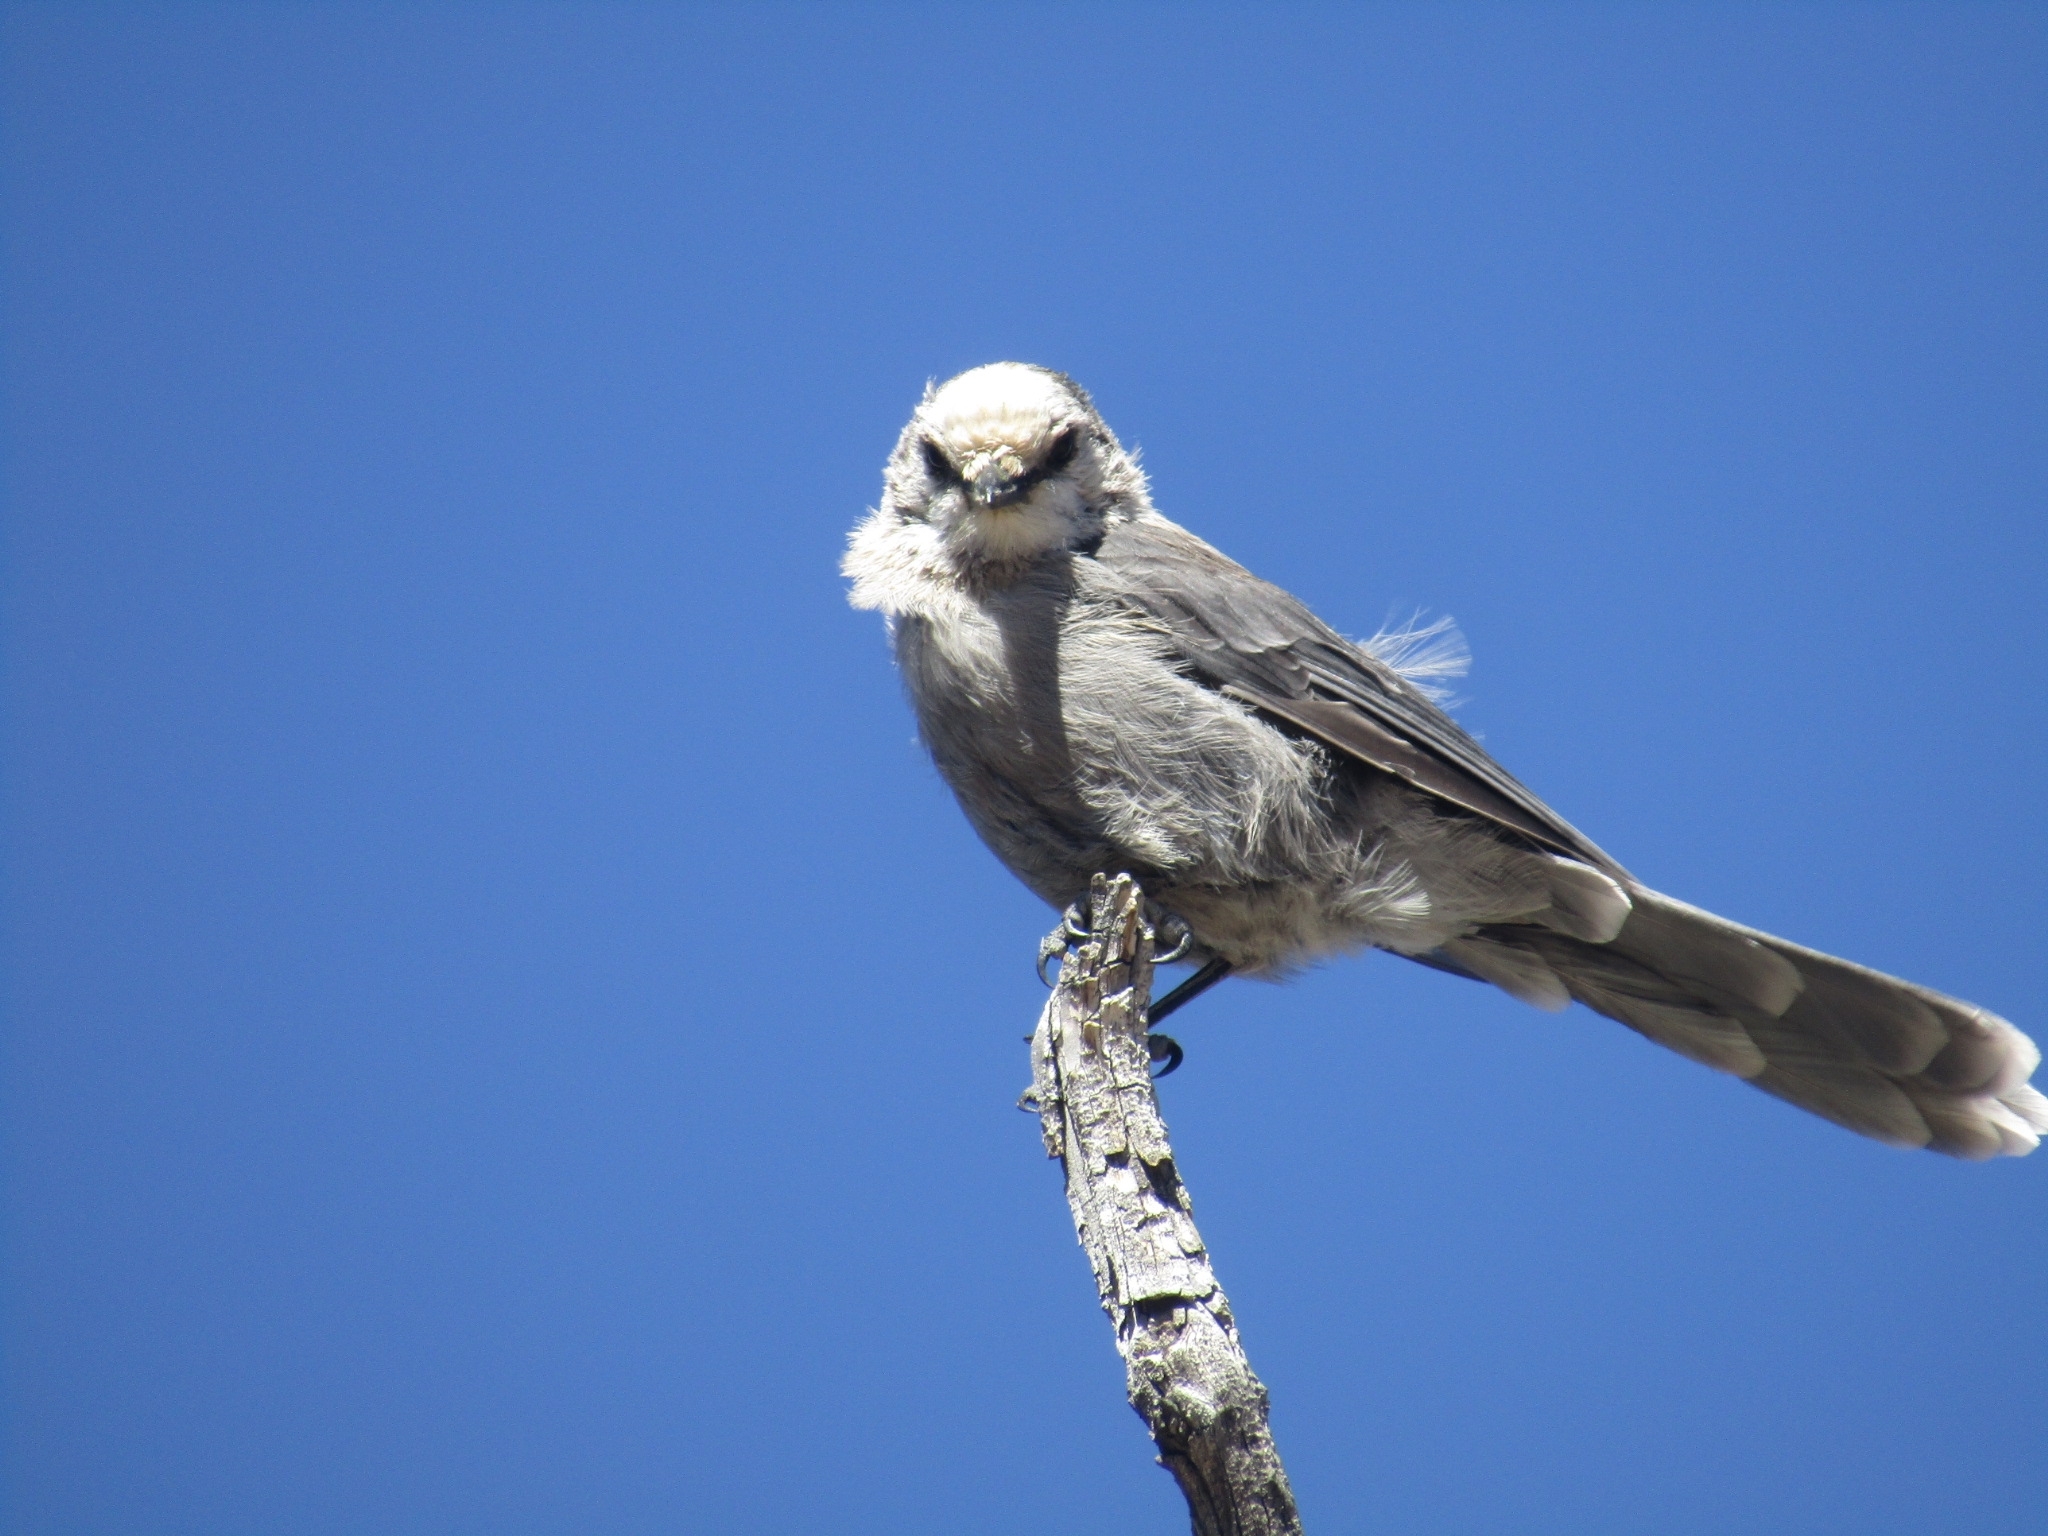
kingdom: Animalia
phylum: Chordata
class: Aves
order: Passeriformes
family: Corvidae
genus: Perisoreus
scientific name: Perisoreus canadensis
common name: Gray jay
